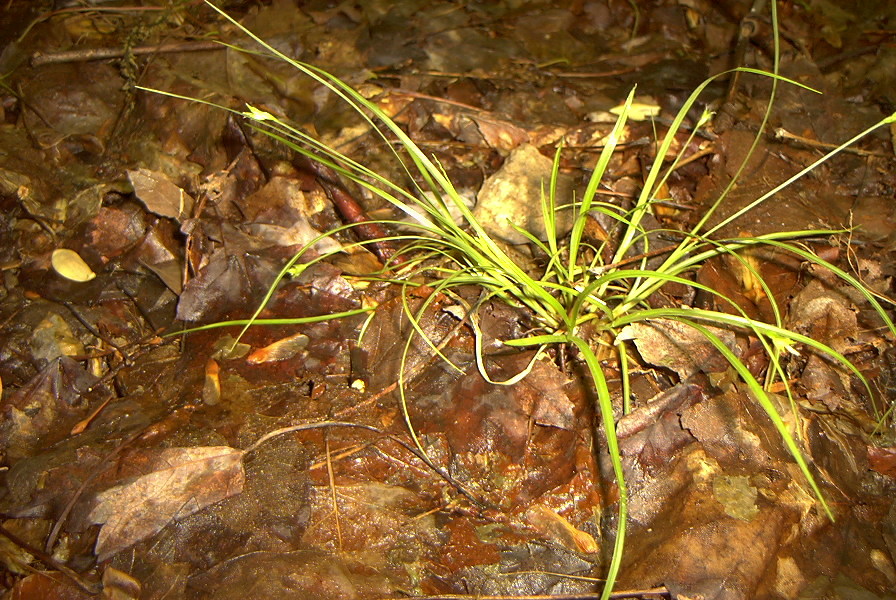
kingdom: Plantae
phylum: Tracheophyta
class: Liliopsida
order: Poales
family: Cyperaceae
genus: Carex
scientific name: Carex willdenowii
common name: Willdenow's sedge
